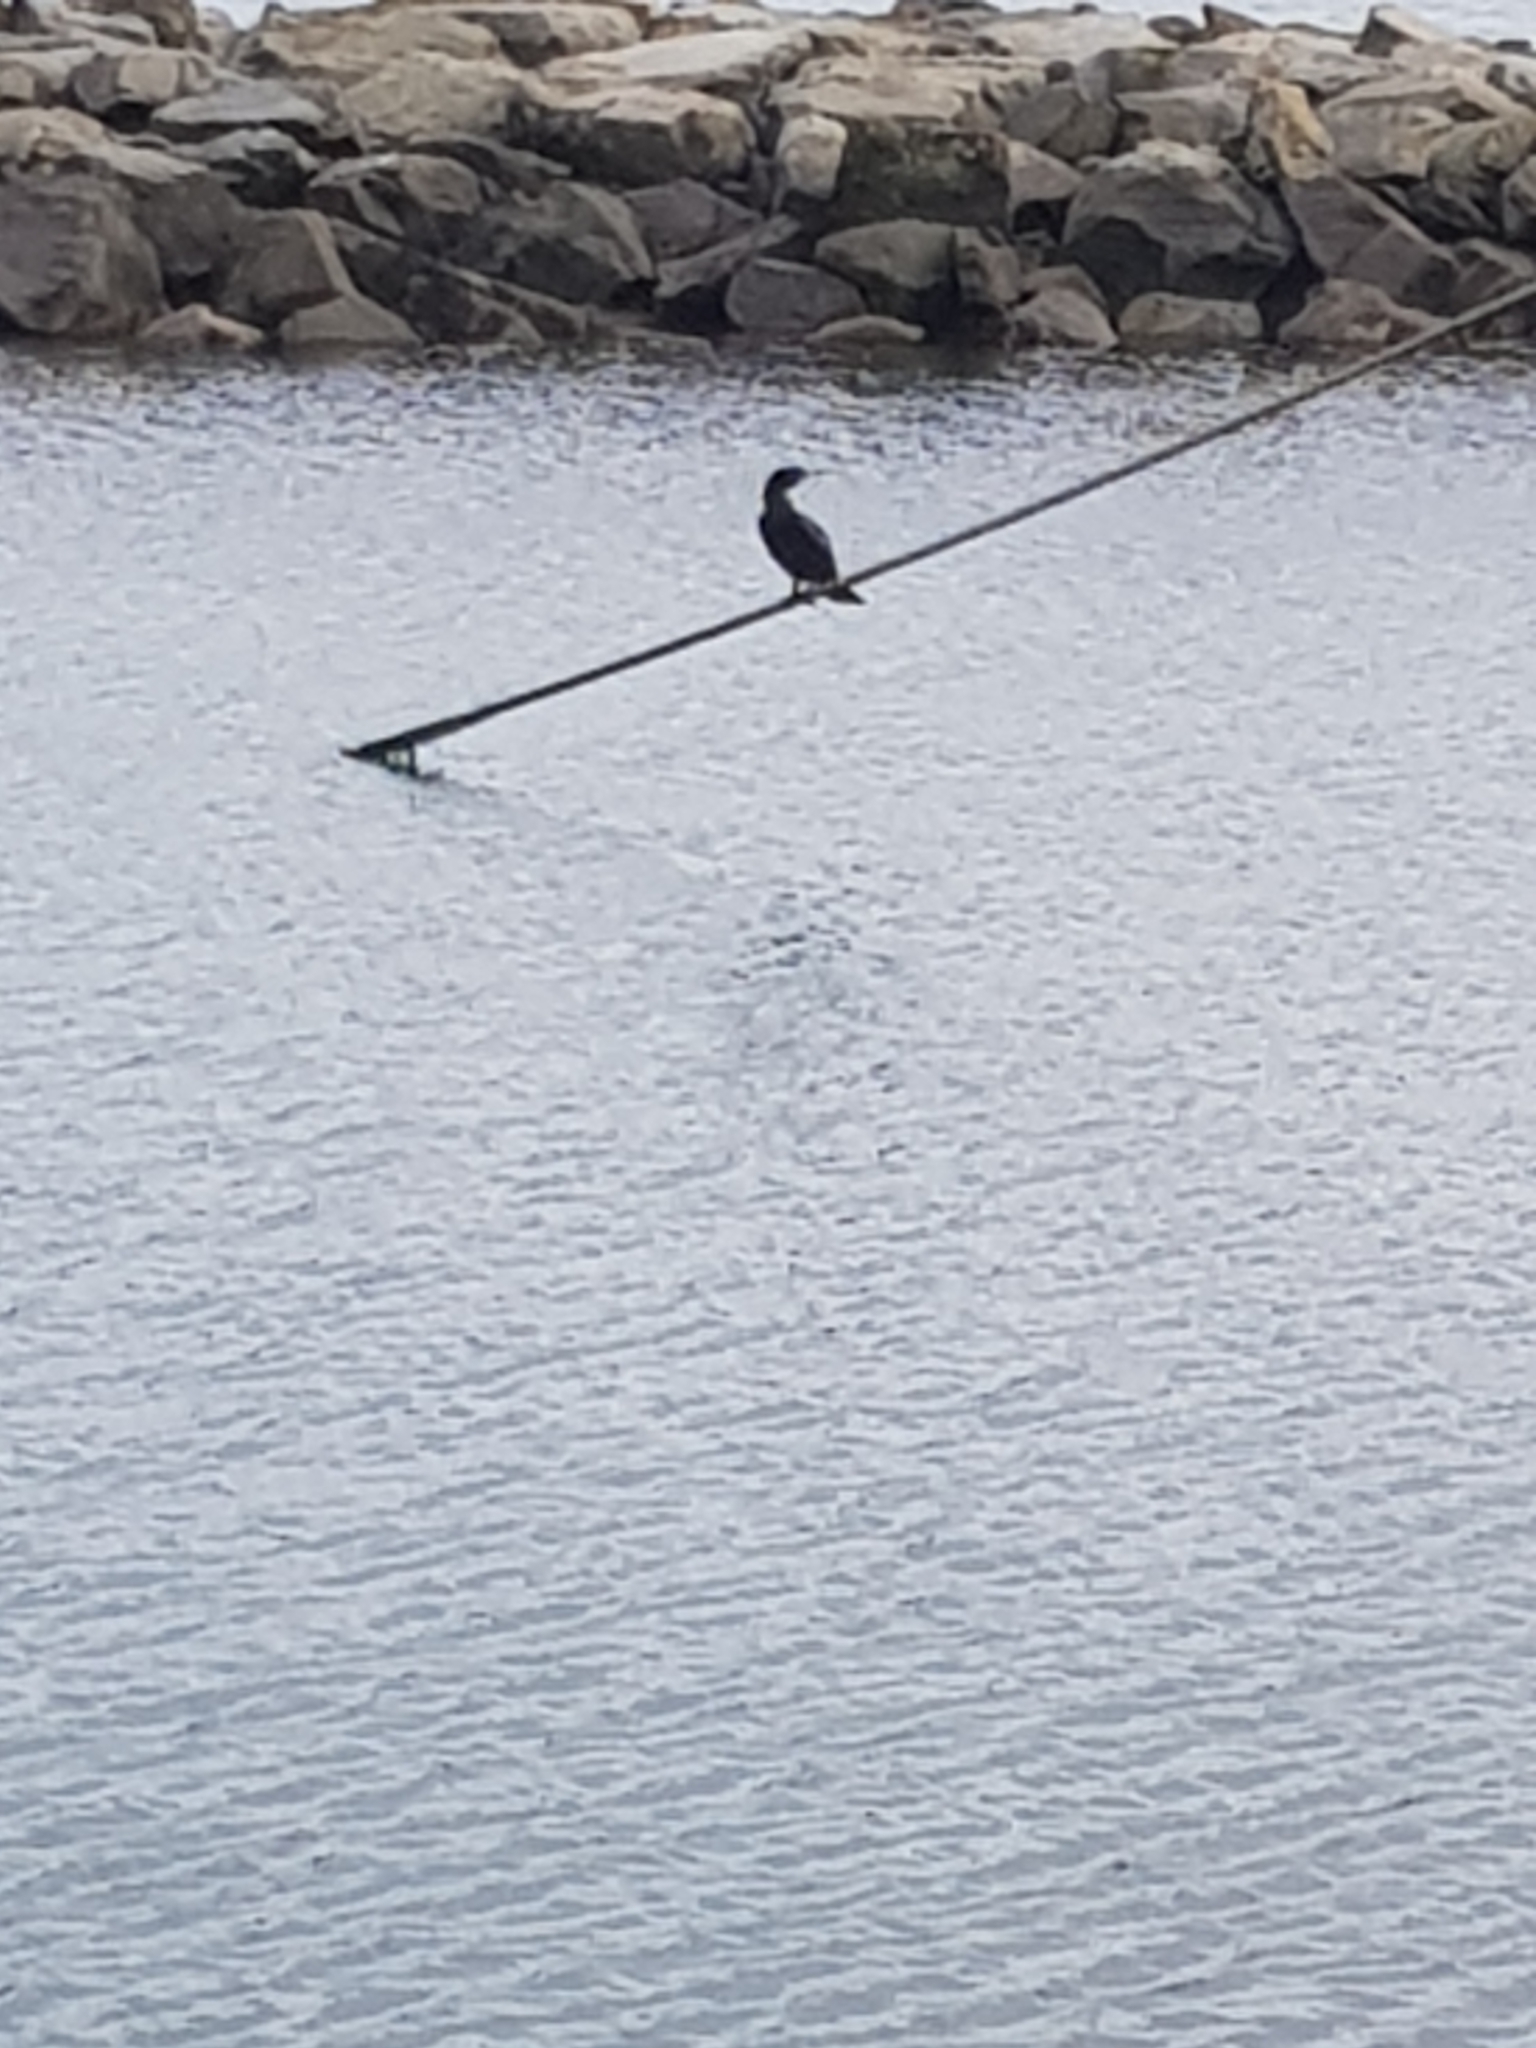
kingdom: Animalia
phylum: Chordata
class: Aves
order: Suliformes
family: Phalacrocoracidae
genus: Phalacrocorax
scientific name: Phalacrocorax sulcirostris
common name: Little black cormorant
